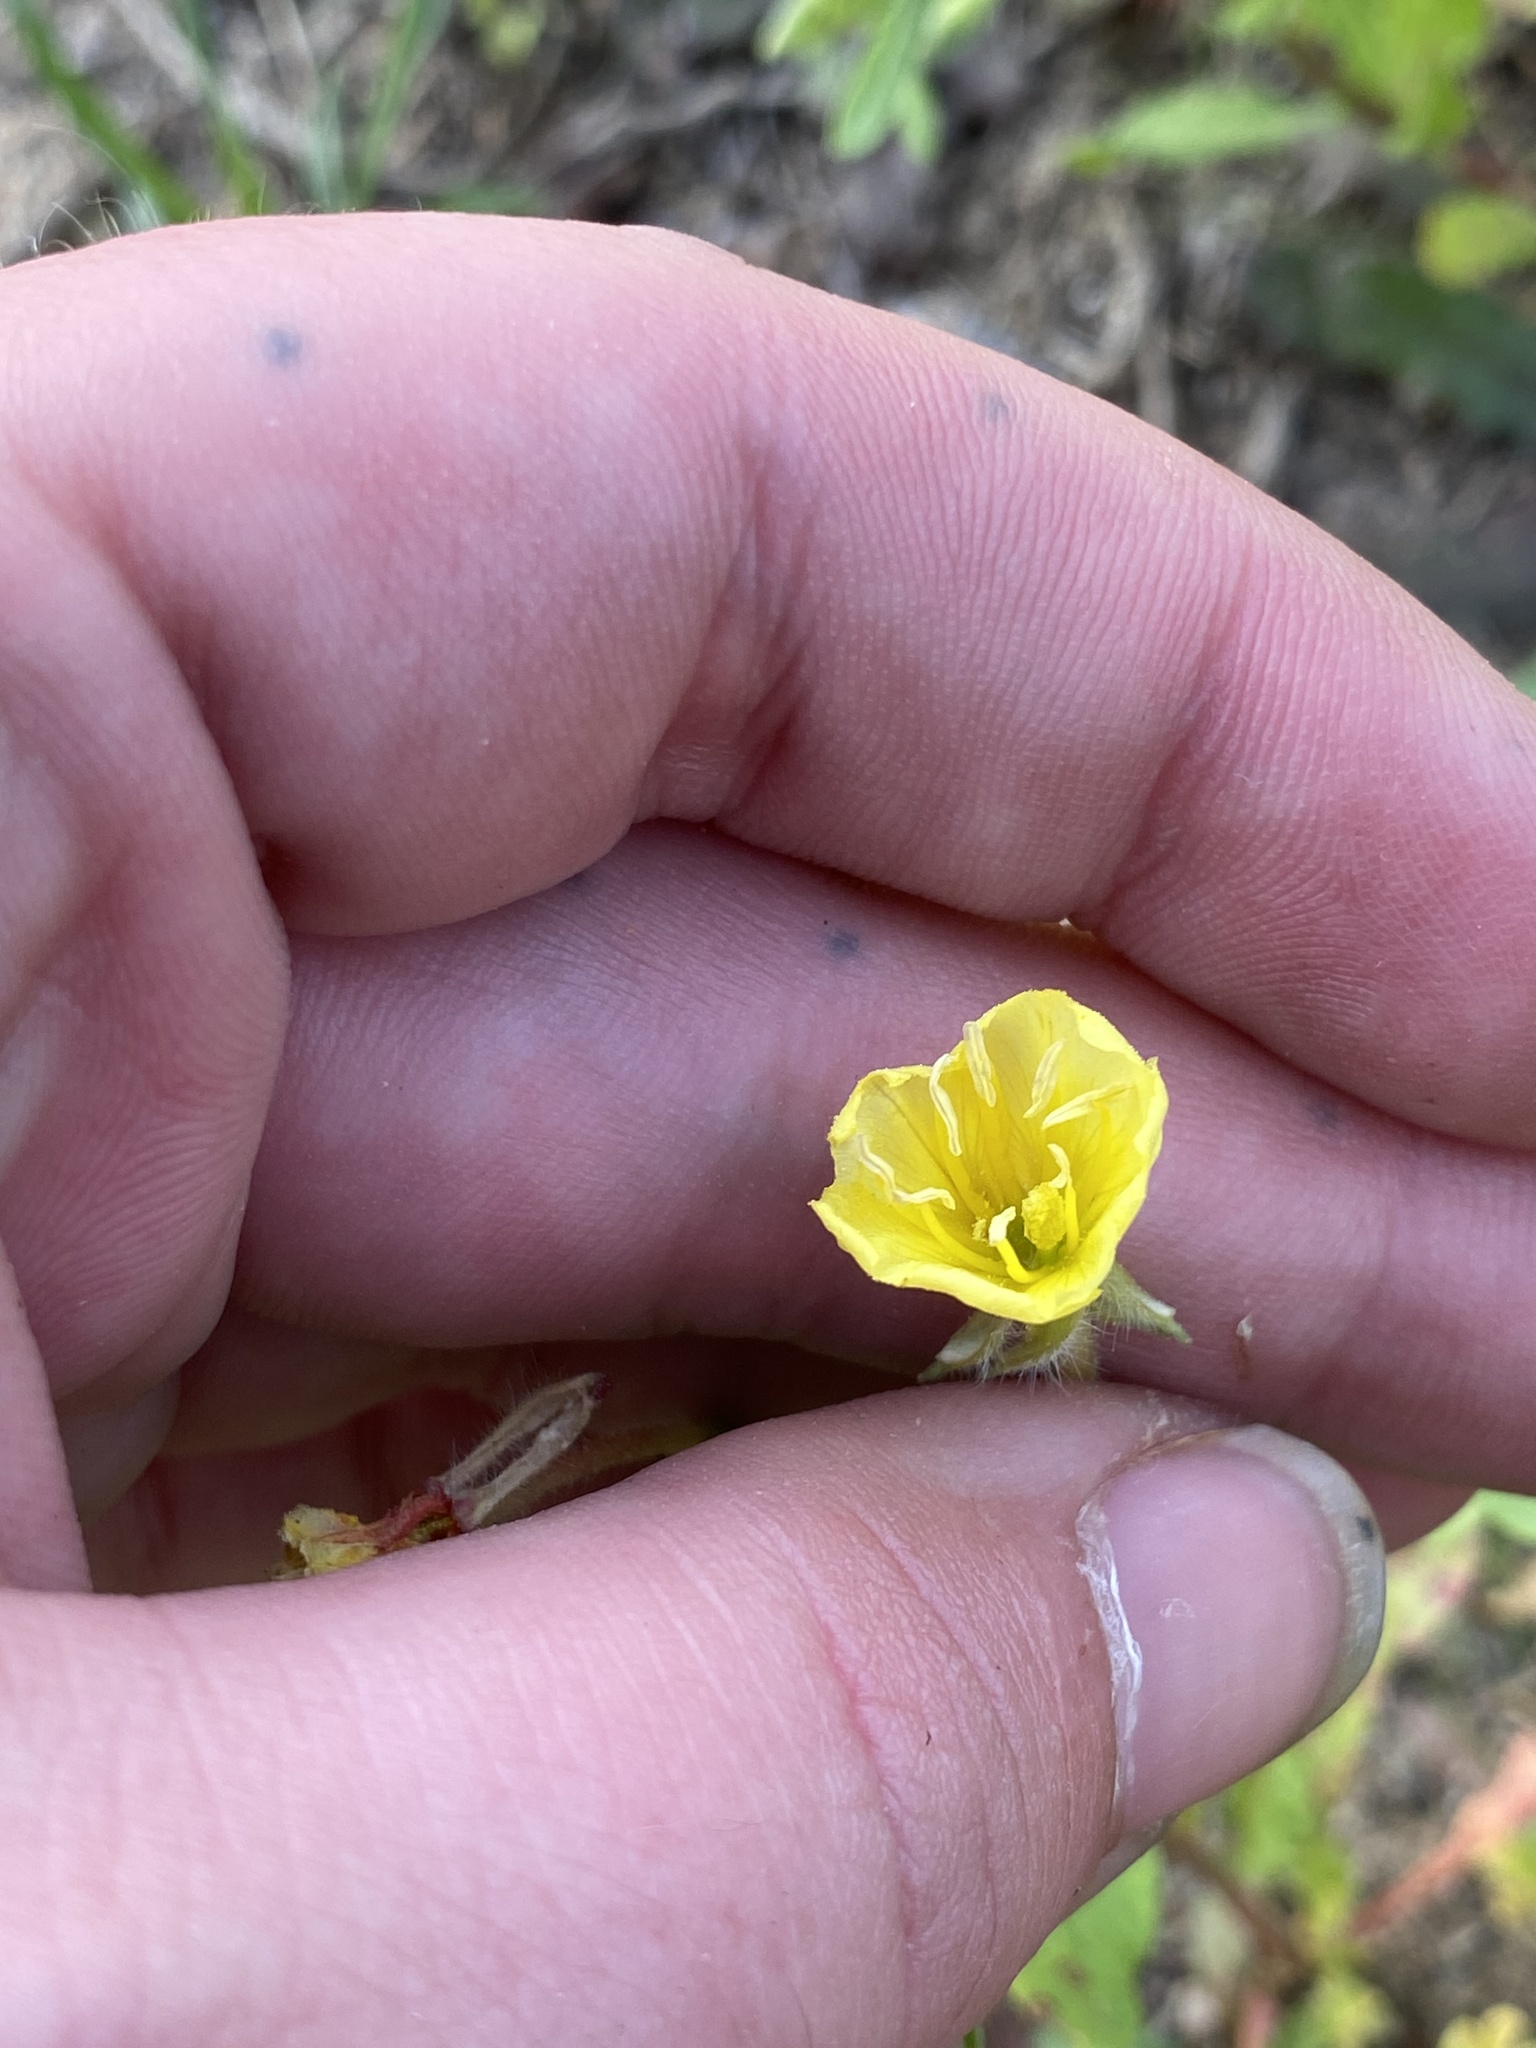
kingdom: Plantae
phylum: Tracheophyta
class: Magnoliopsida
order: Myrtales
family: Onagraceae
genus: Oenothera
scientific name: Oenothera laciniata
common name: Cut-leaved evening-primrose
